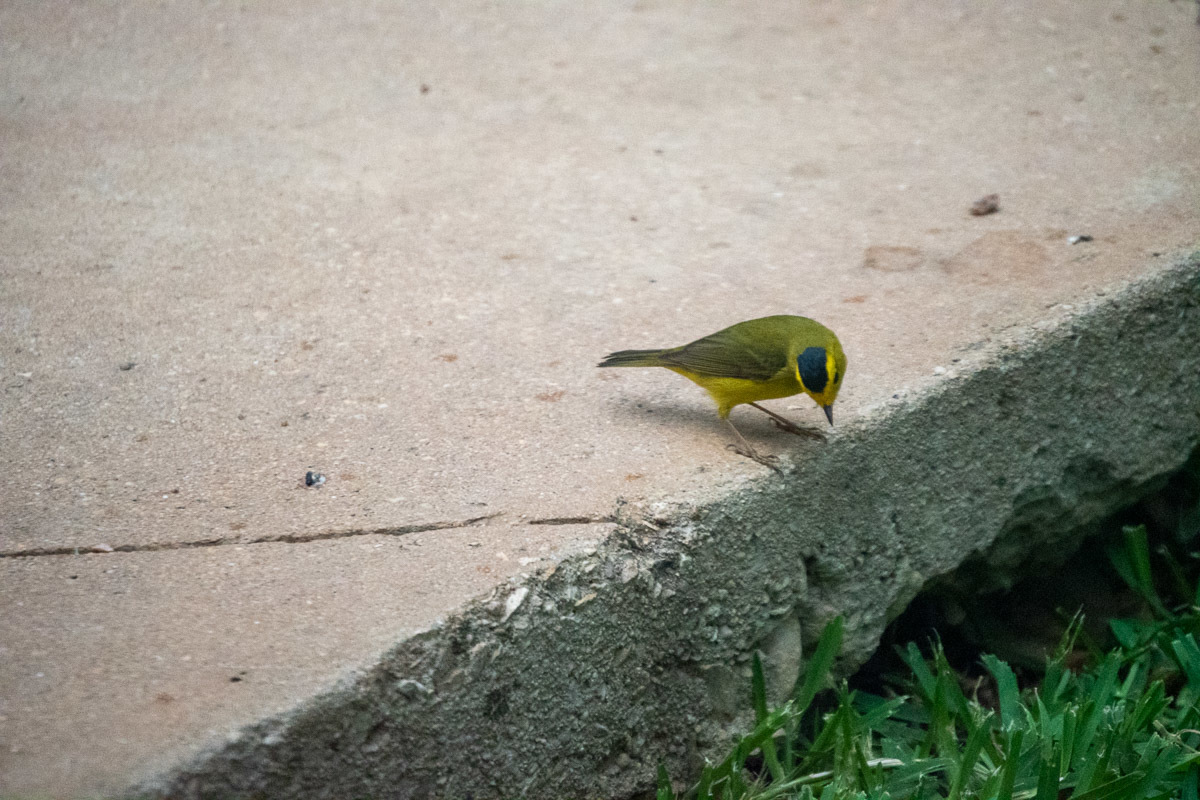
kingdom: Animalia
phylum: Chordata
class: Aves
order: Passeriformes
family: Parulidae
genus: Cardellina
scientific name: Cardellina pusilla
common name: Wilson's warbler
